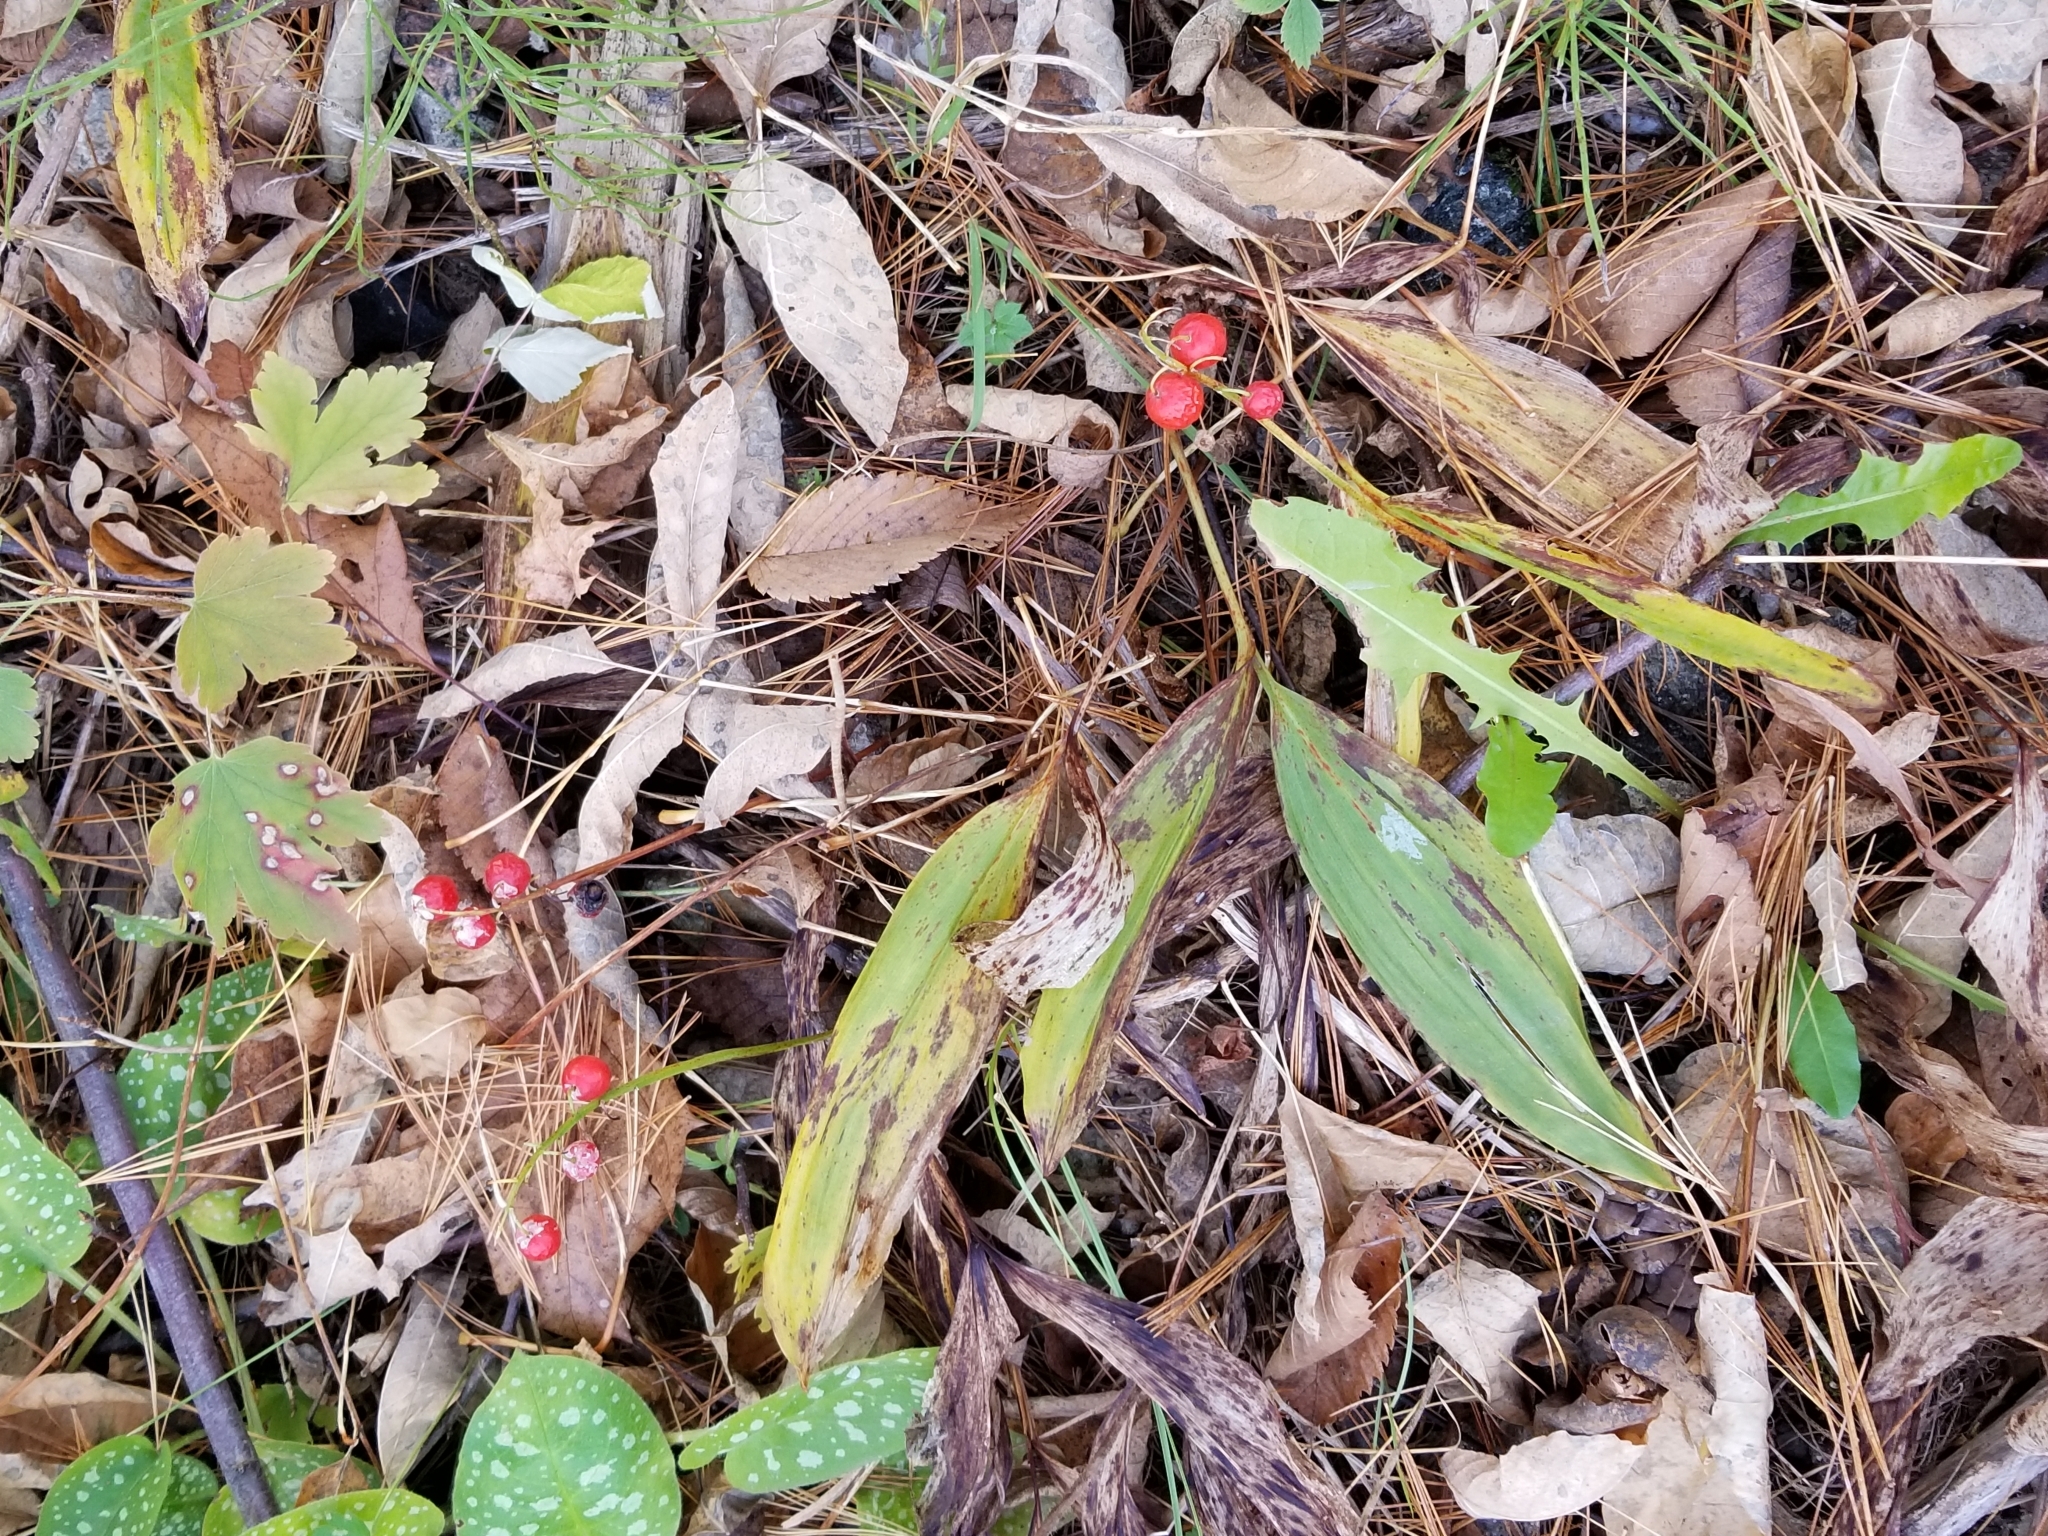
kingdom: Plantae
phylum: Tracheophyta
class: Liliopsida
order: Asparagales
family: Asparagaceae
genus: Convallaria
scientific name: Convallaria majalis
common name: Lily-of-the-valley
